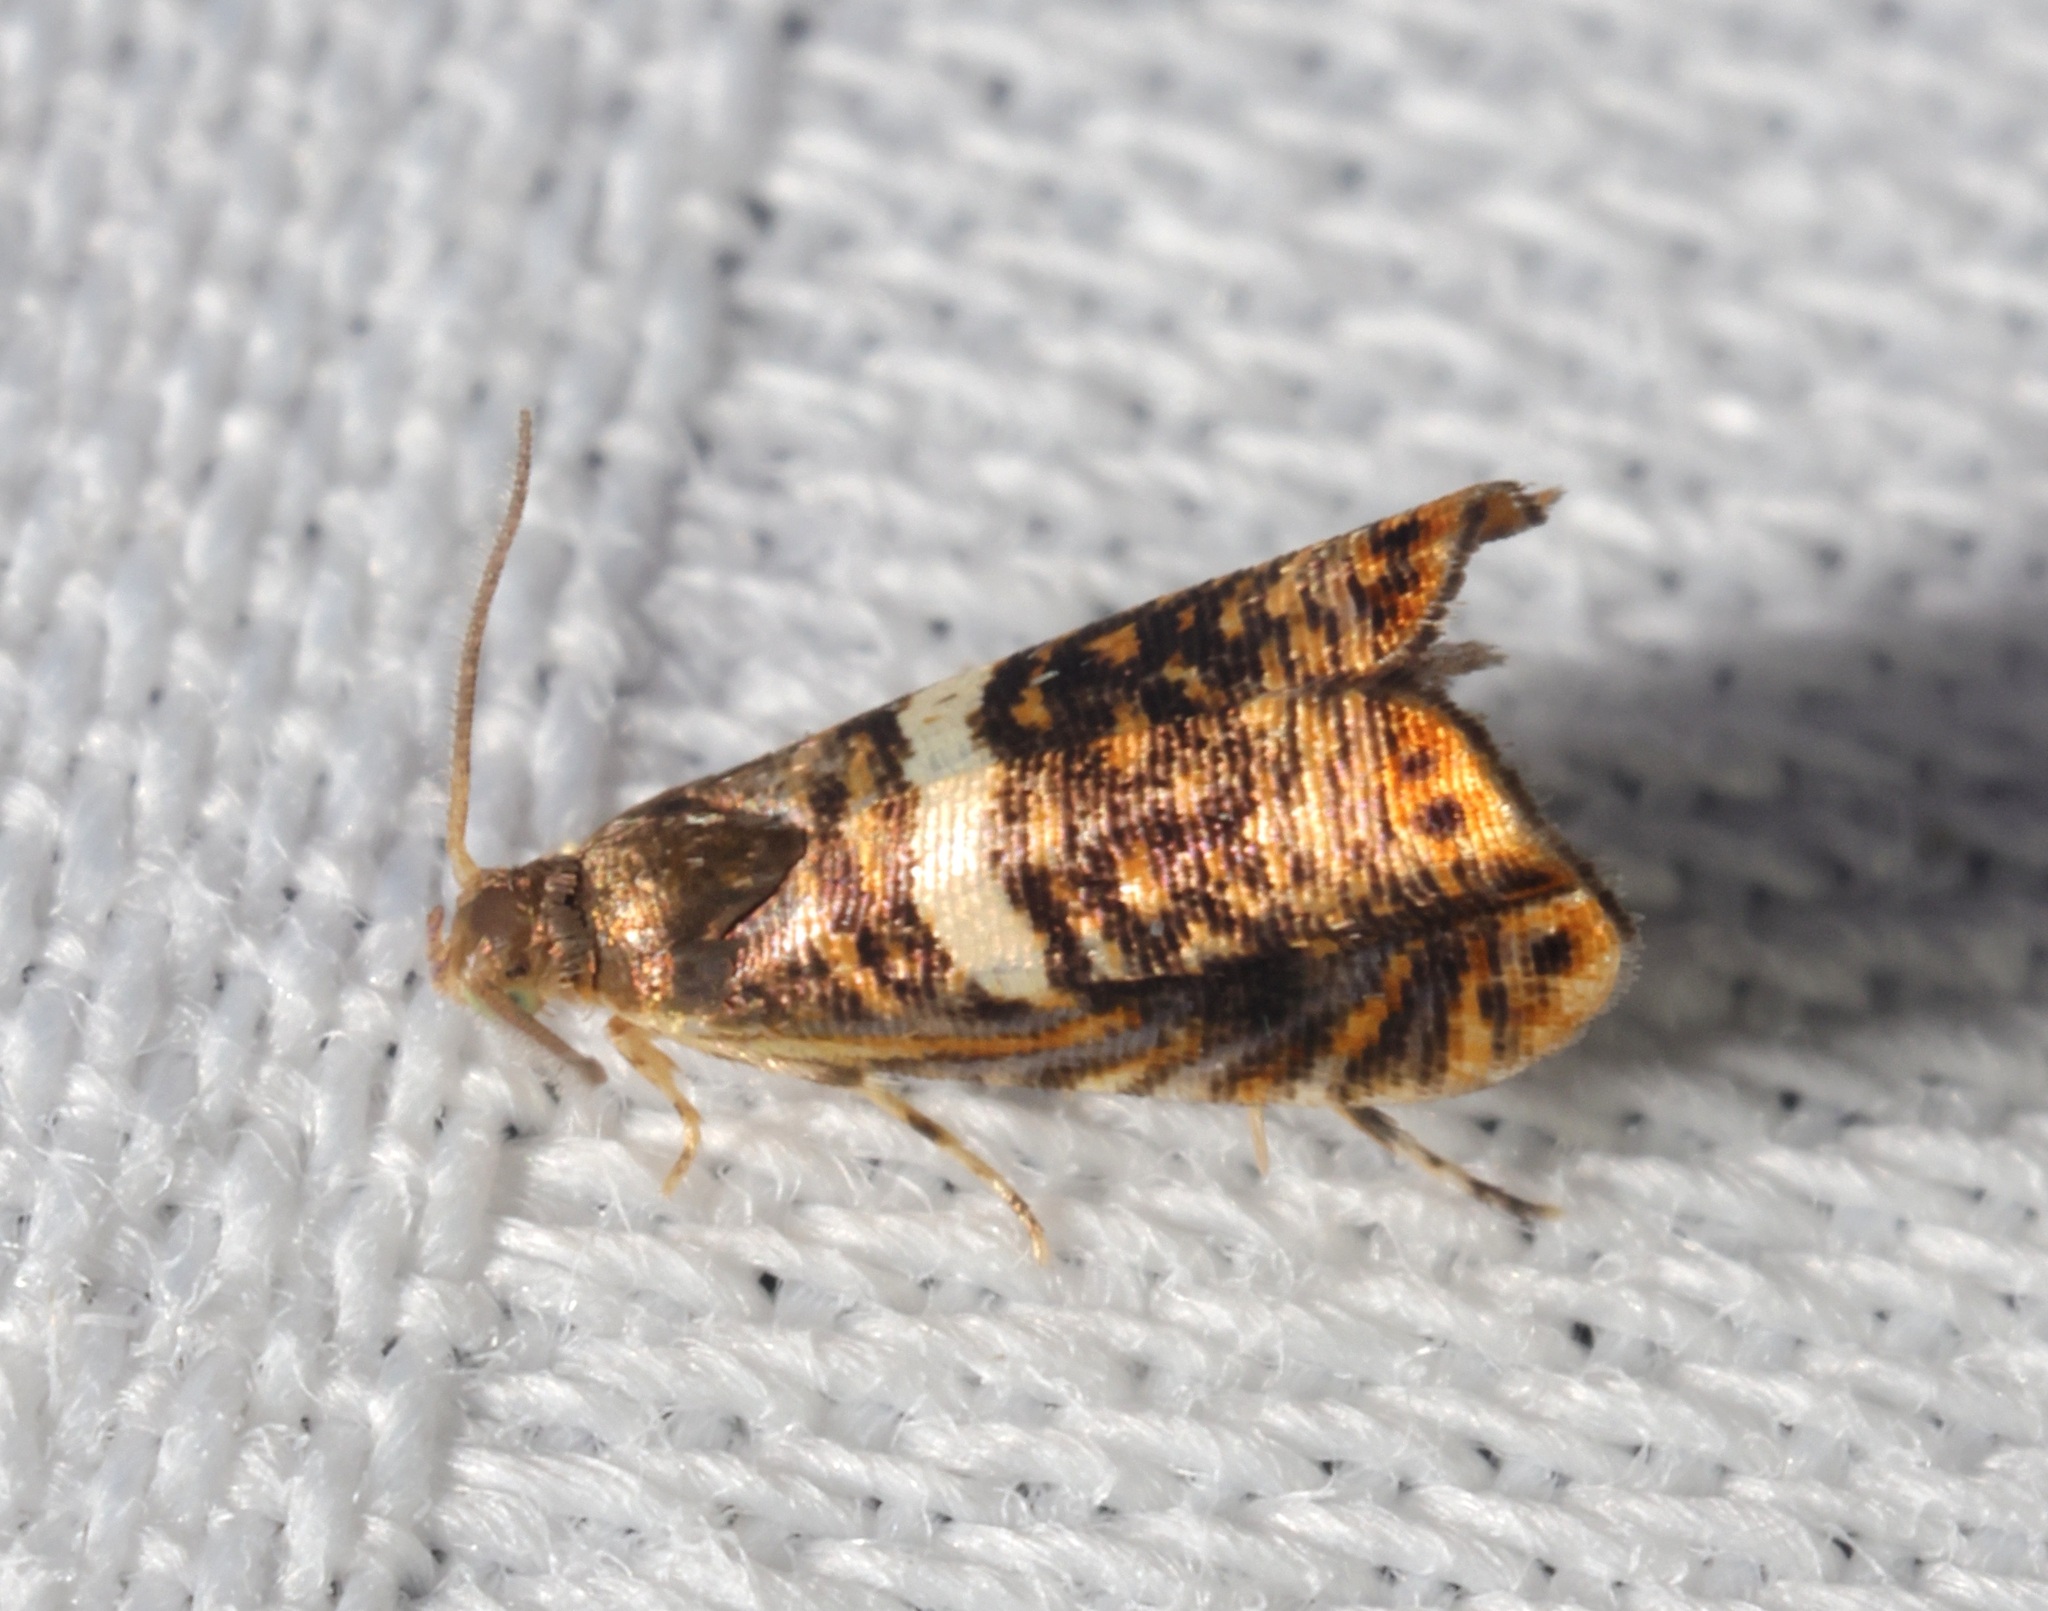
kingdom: Animalia
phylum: Arthropoda
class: Insecta
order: Lepidoptera
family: Tortricidae
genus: Hilarographa
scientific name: Hilarographa shehkonga
